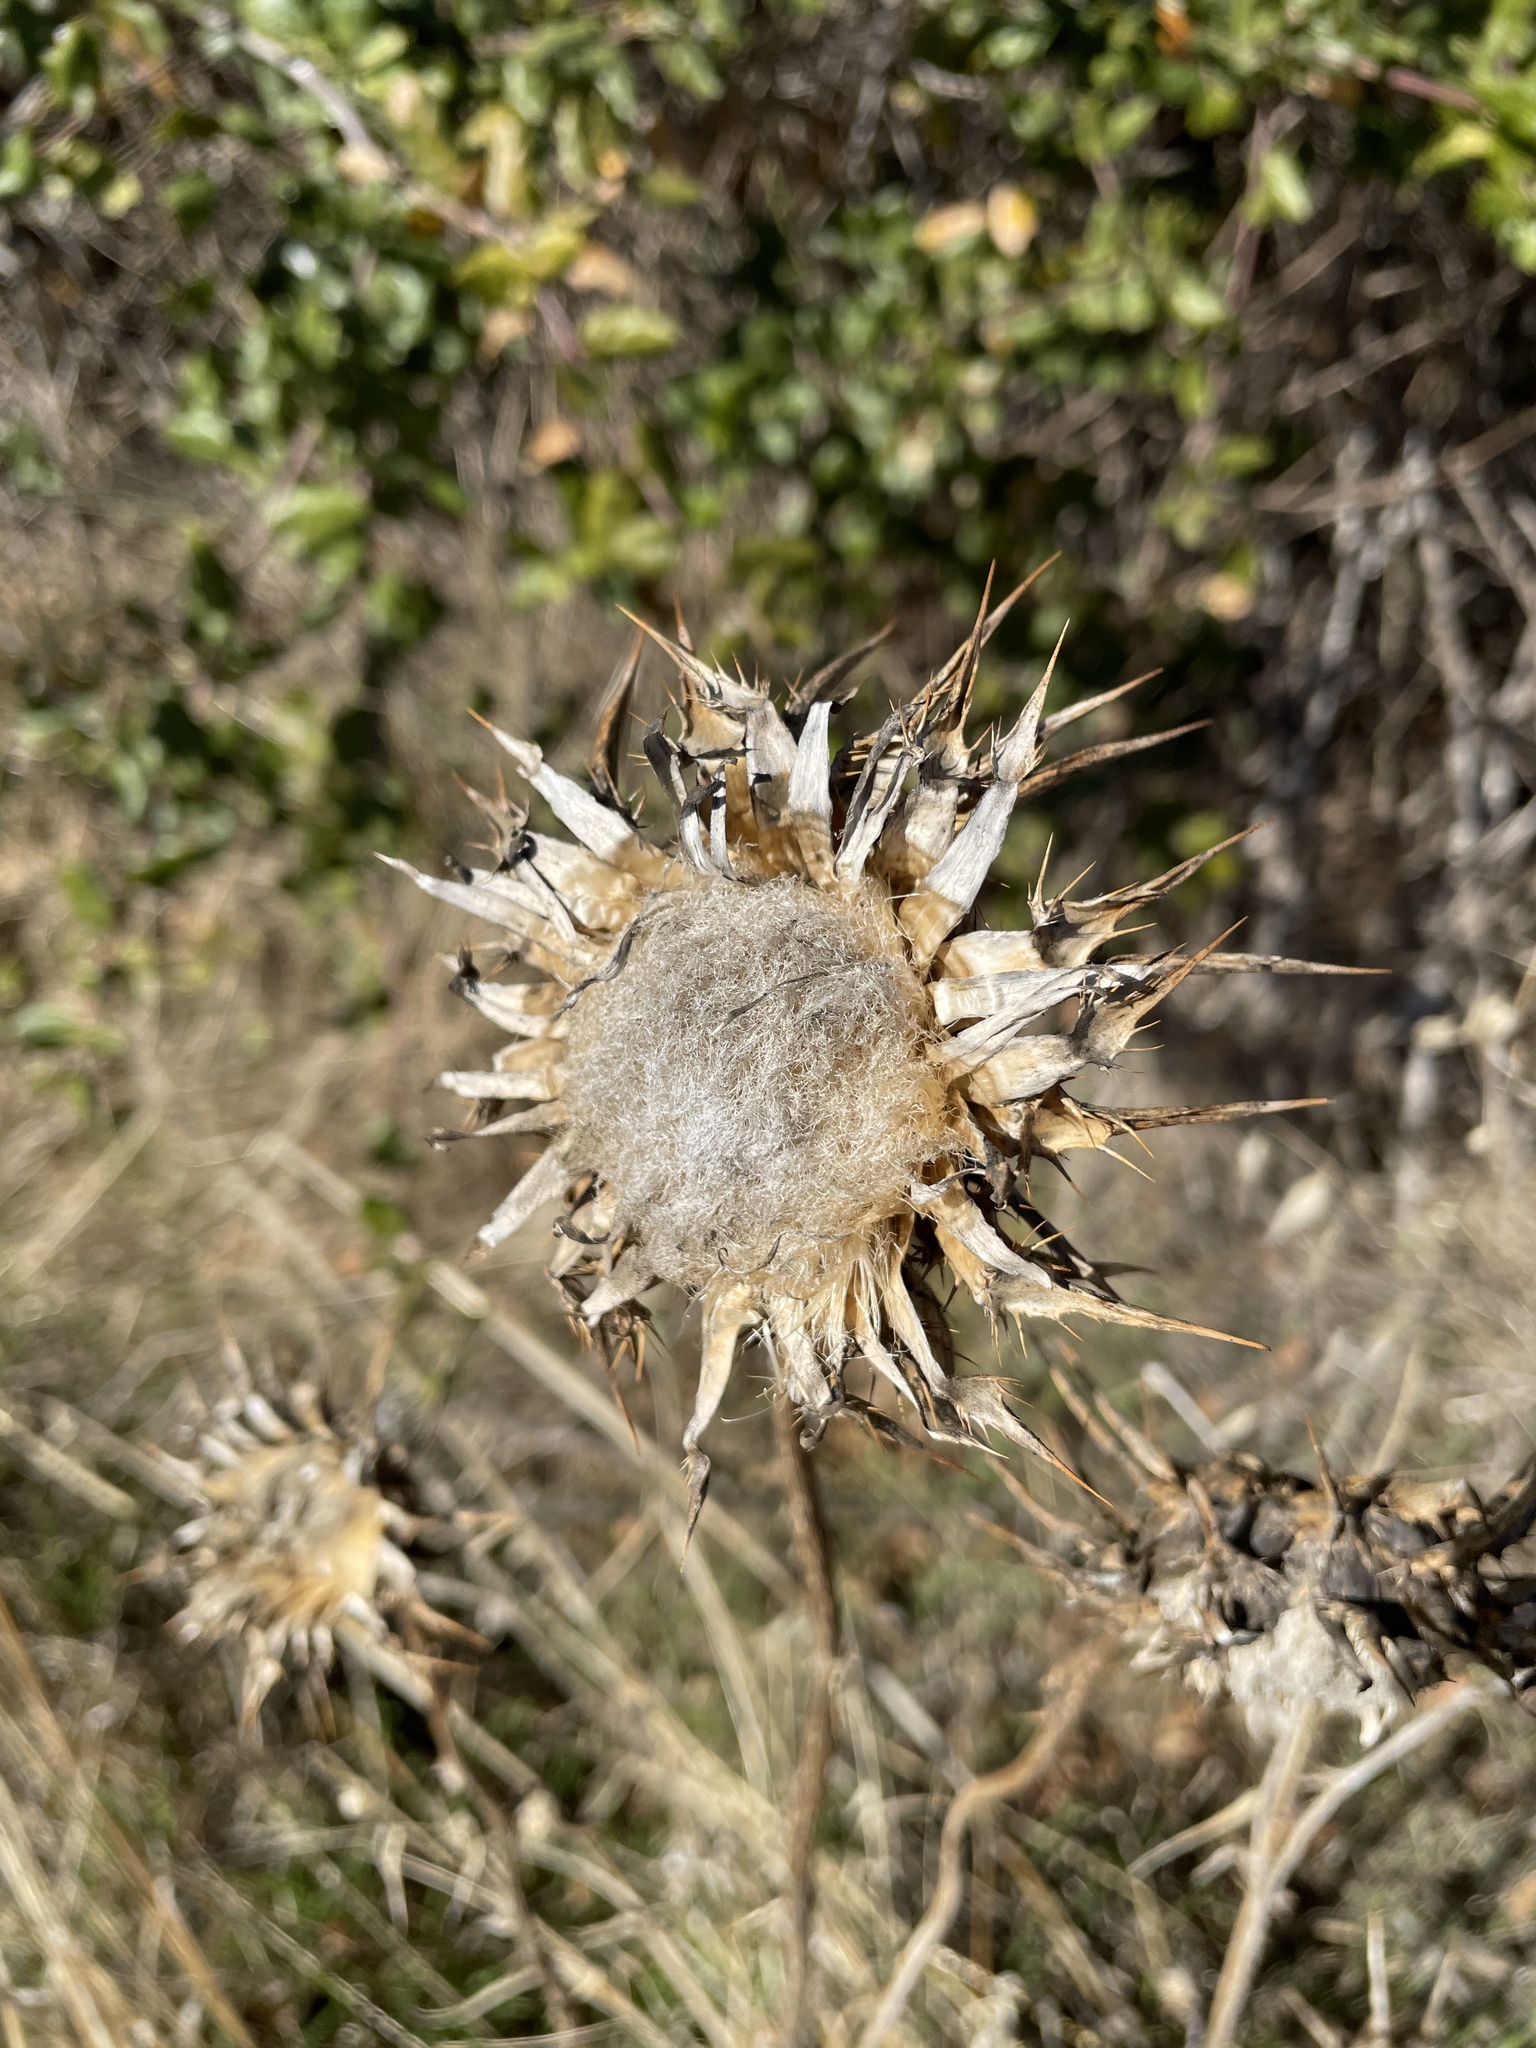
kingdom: Plantae
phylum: Tracheophyta
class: Magnoliopsida
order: Asterales
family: Asteraceae
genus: Silybum
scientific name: Silybum marianum
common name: Milk thistle
